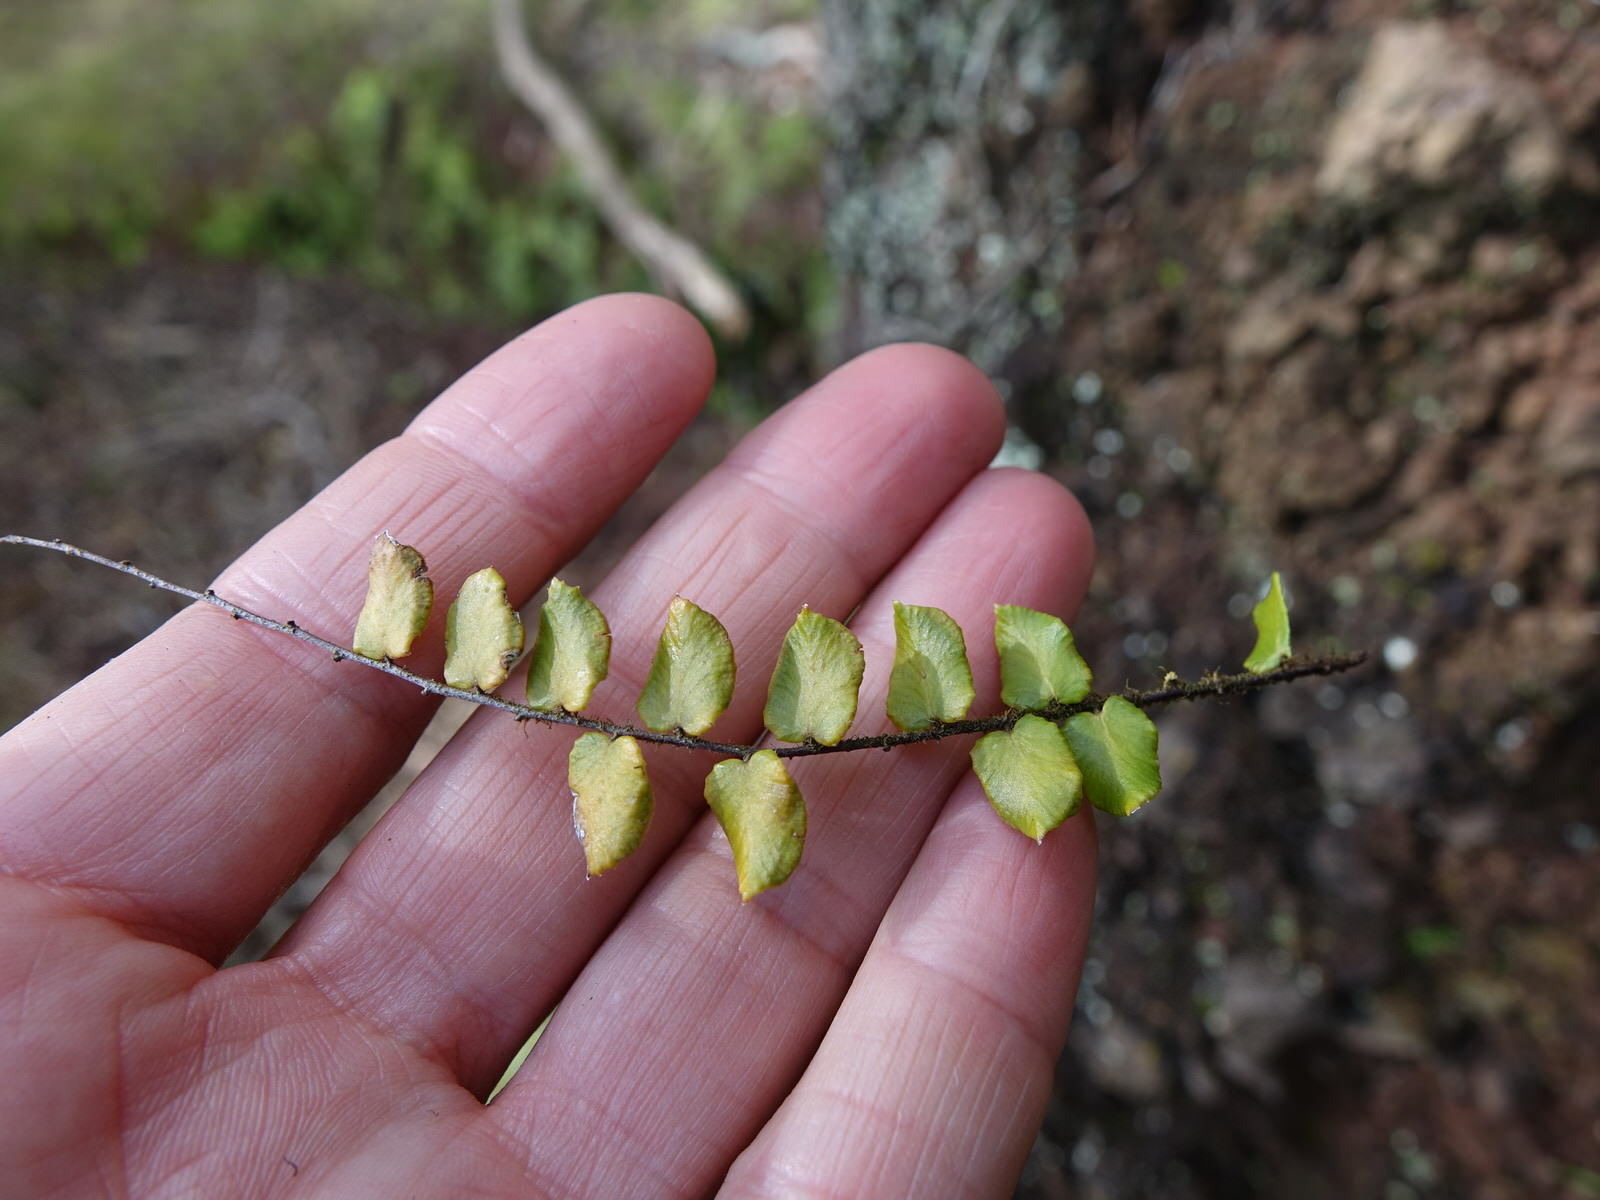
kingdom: Plantae
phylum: Tracheophyta
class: Polypodiopsida
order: Polypodiales
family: Pteridaceae
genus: Pellaea
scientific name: Pellaea rotundifolia
